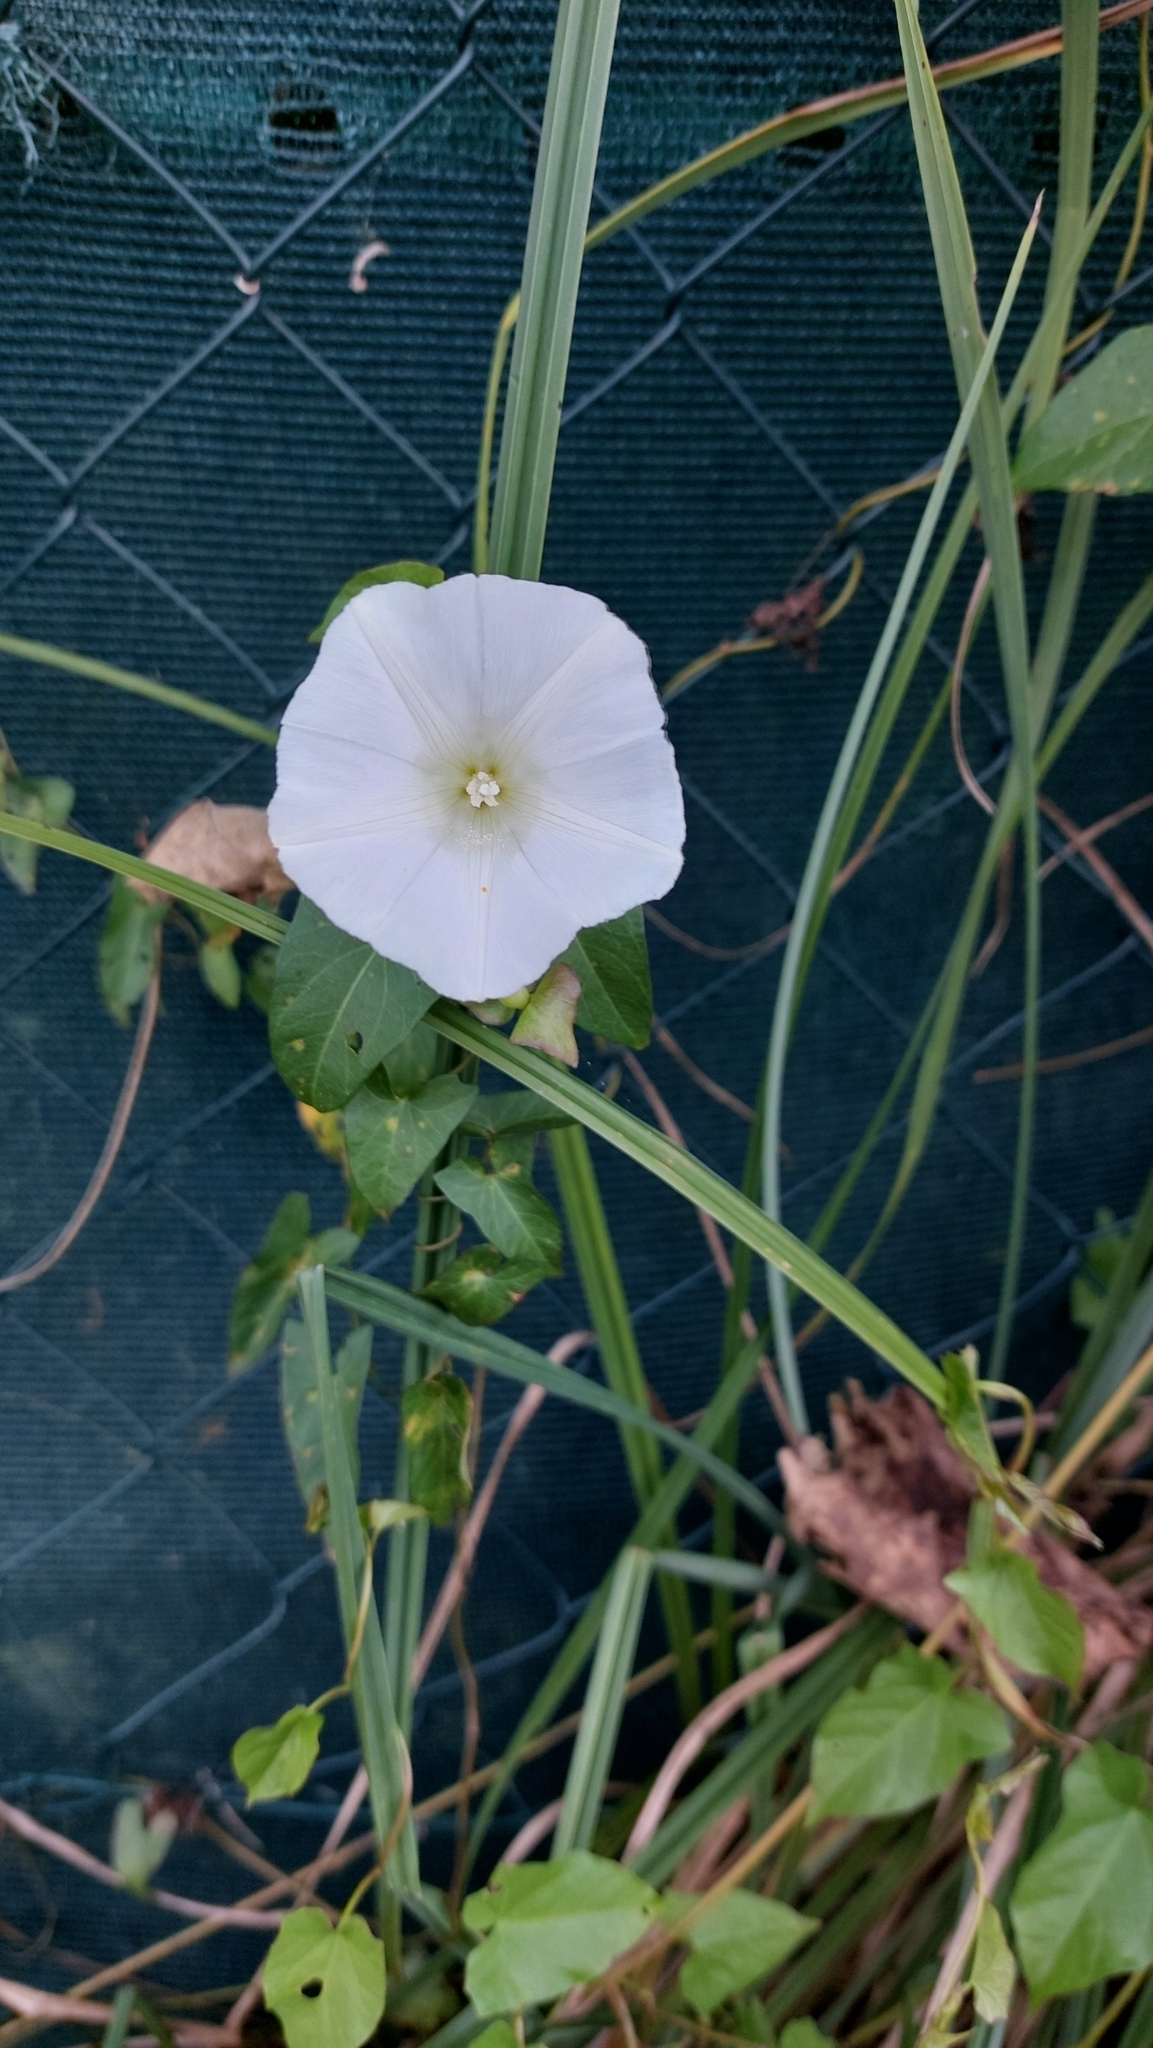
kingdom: Plantae
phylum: Tracheophyta
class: Magnoliopsida
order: Solanales
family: Convolvulaceae
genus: Calystegia
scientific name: Calystegia sepium
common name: Hedge bindweed
